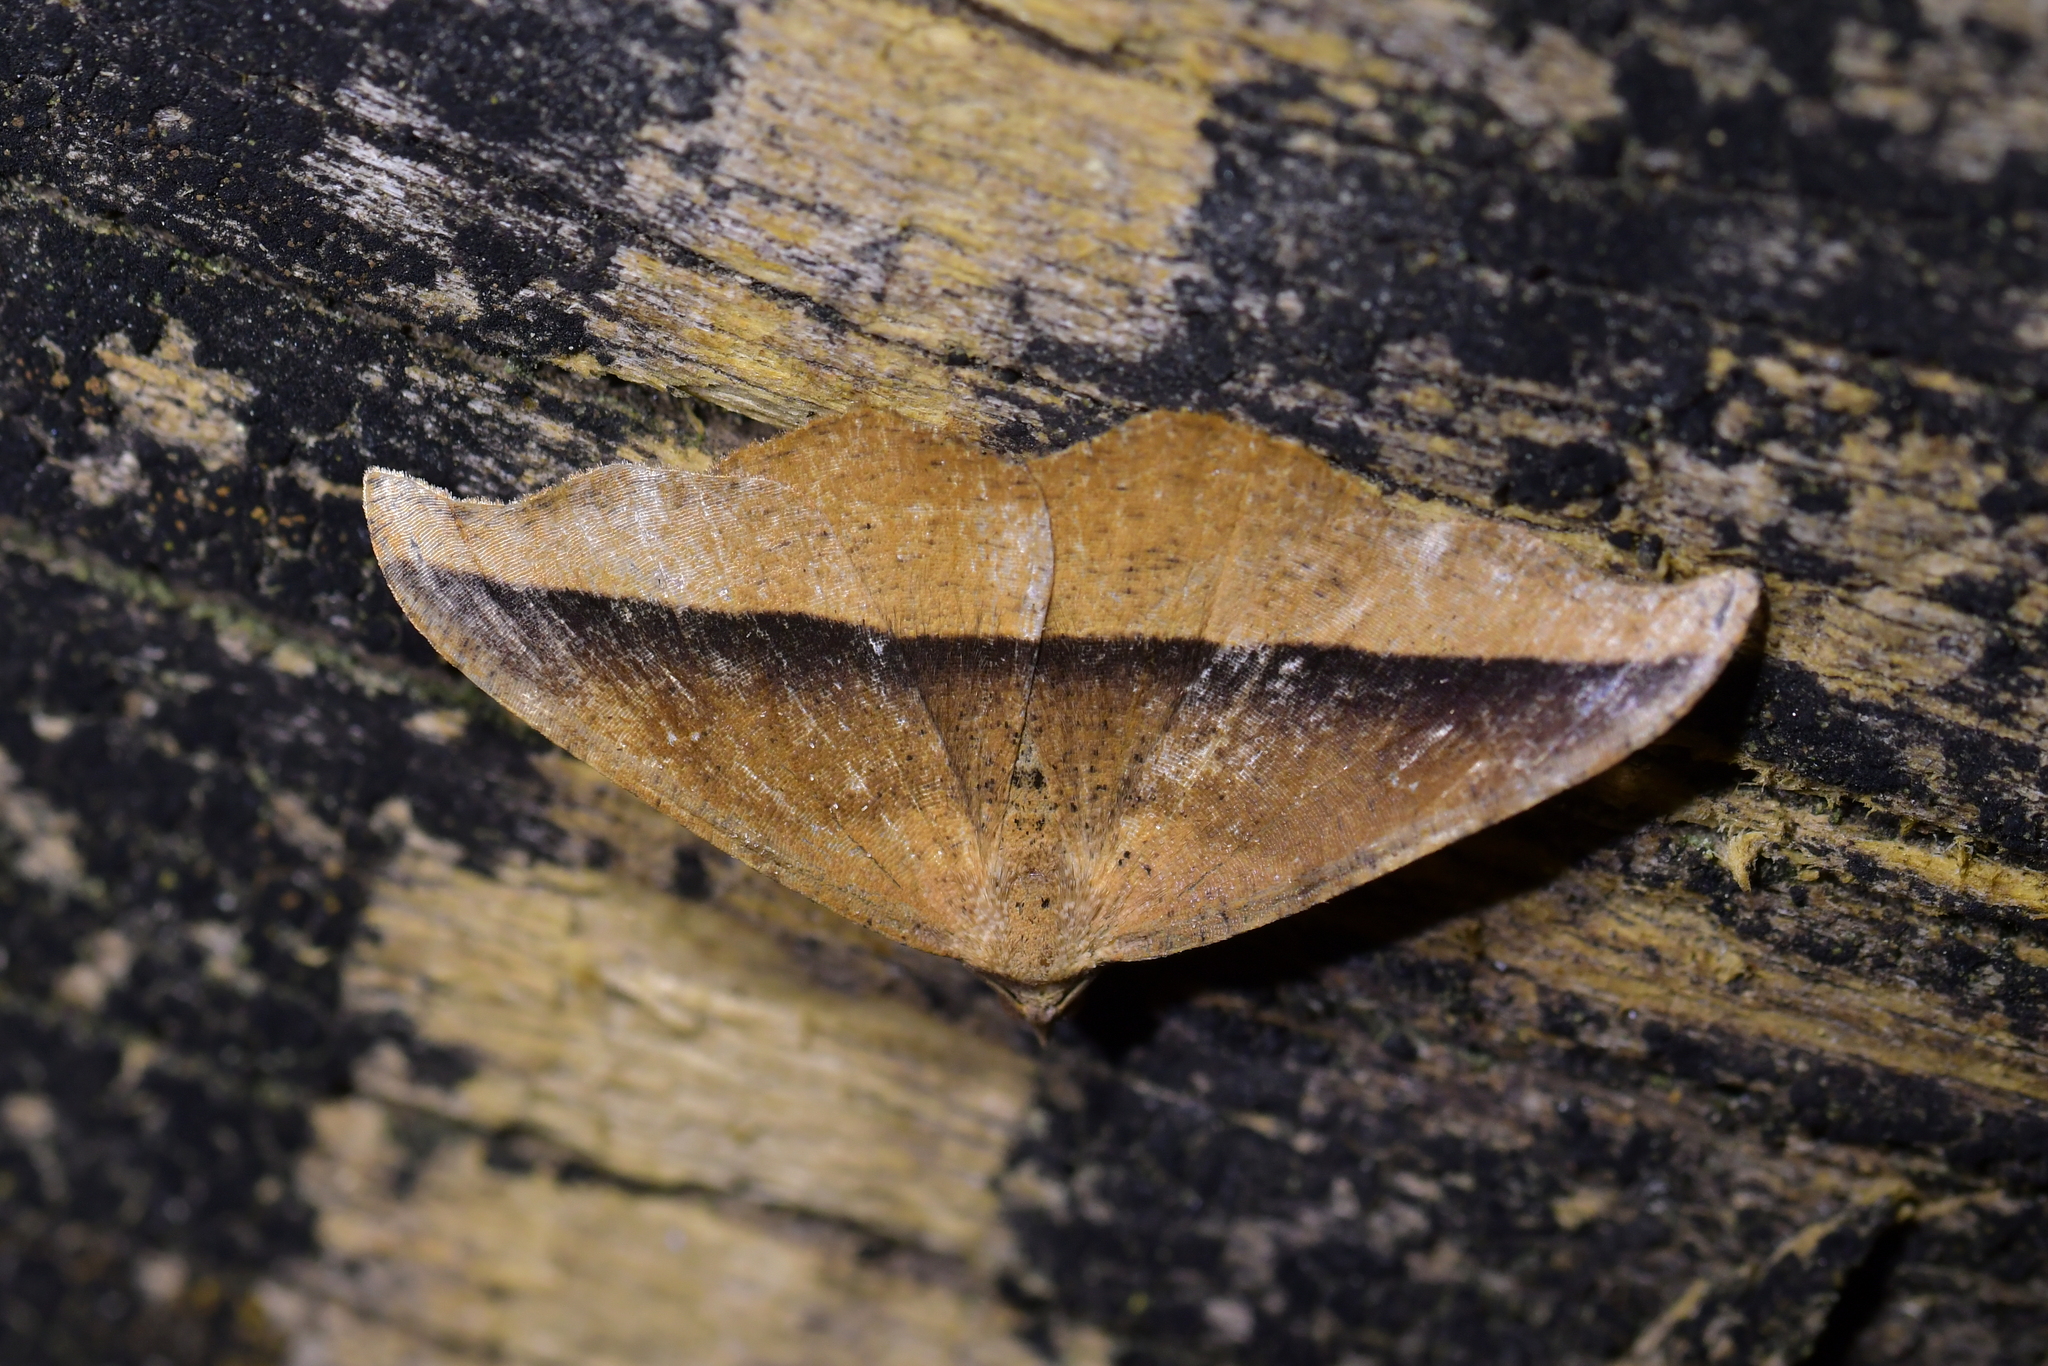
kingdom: Animalia
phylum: Arthropoda
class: Insecta
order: Lepidoptera
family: Geometridae
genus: Sarisa
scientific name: Sarisa muriferata
